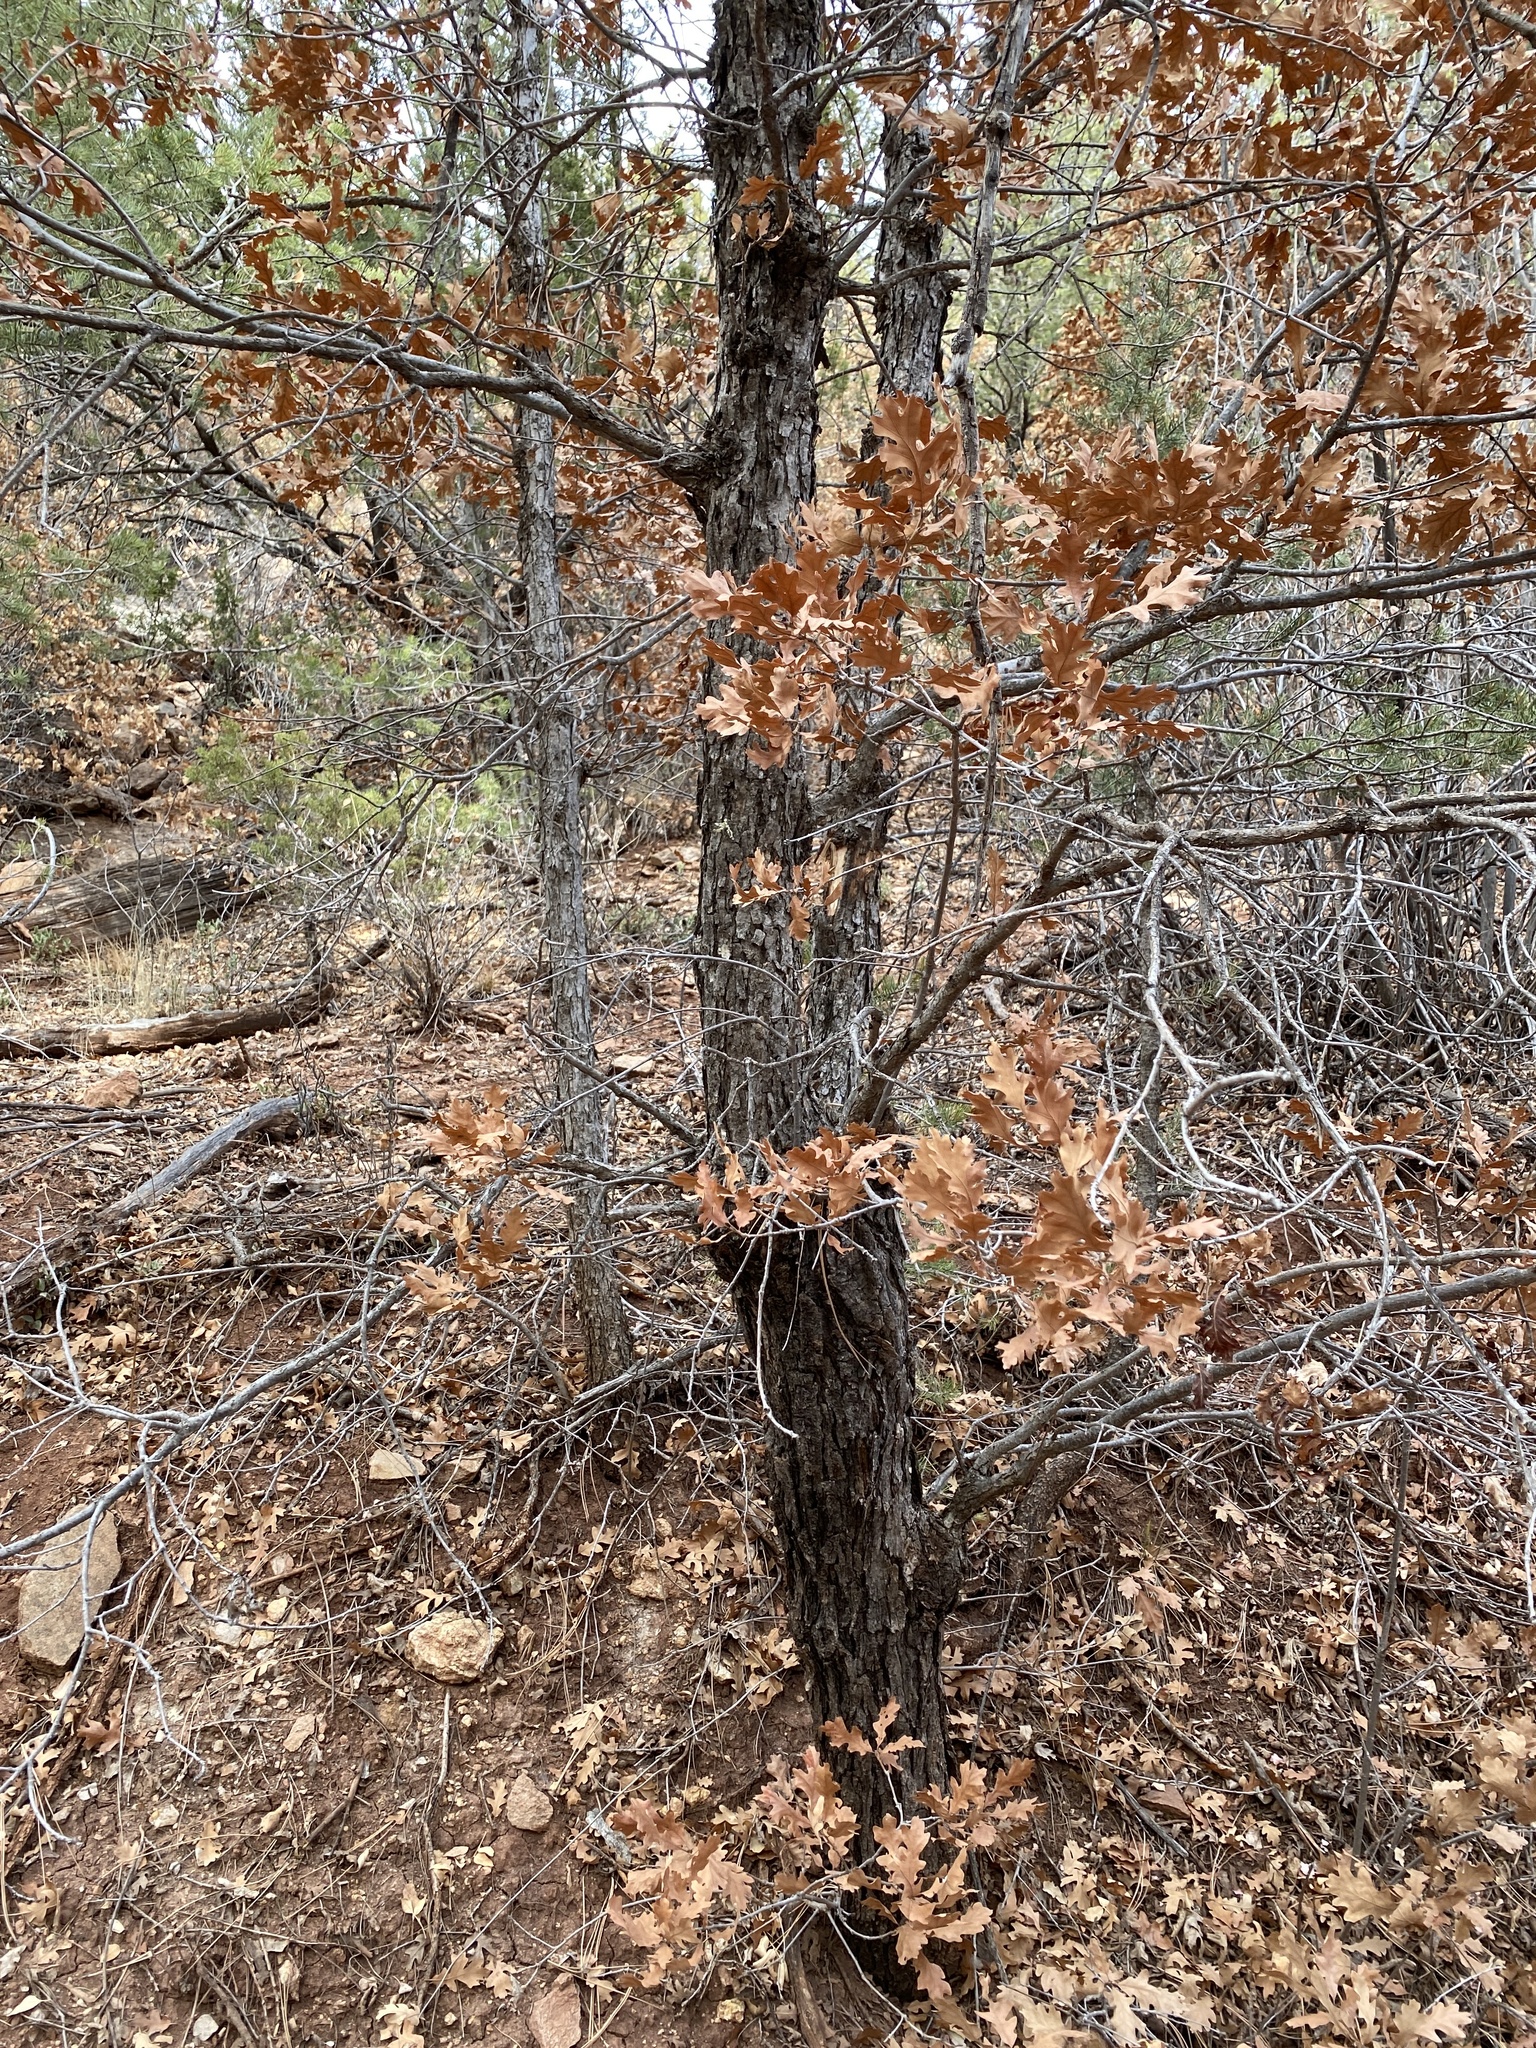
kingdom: Plantae
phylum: Tracheophyta
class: Magnoliopsida
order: Fagales
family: Fagaceae
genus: Quercus
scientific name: Quercus gambelii
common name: Gambel oak
